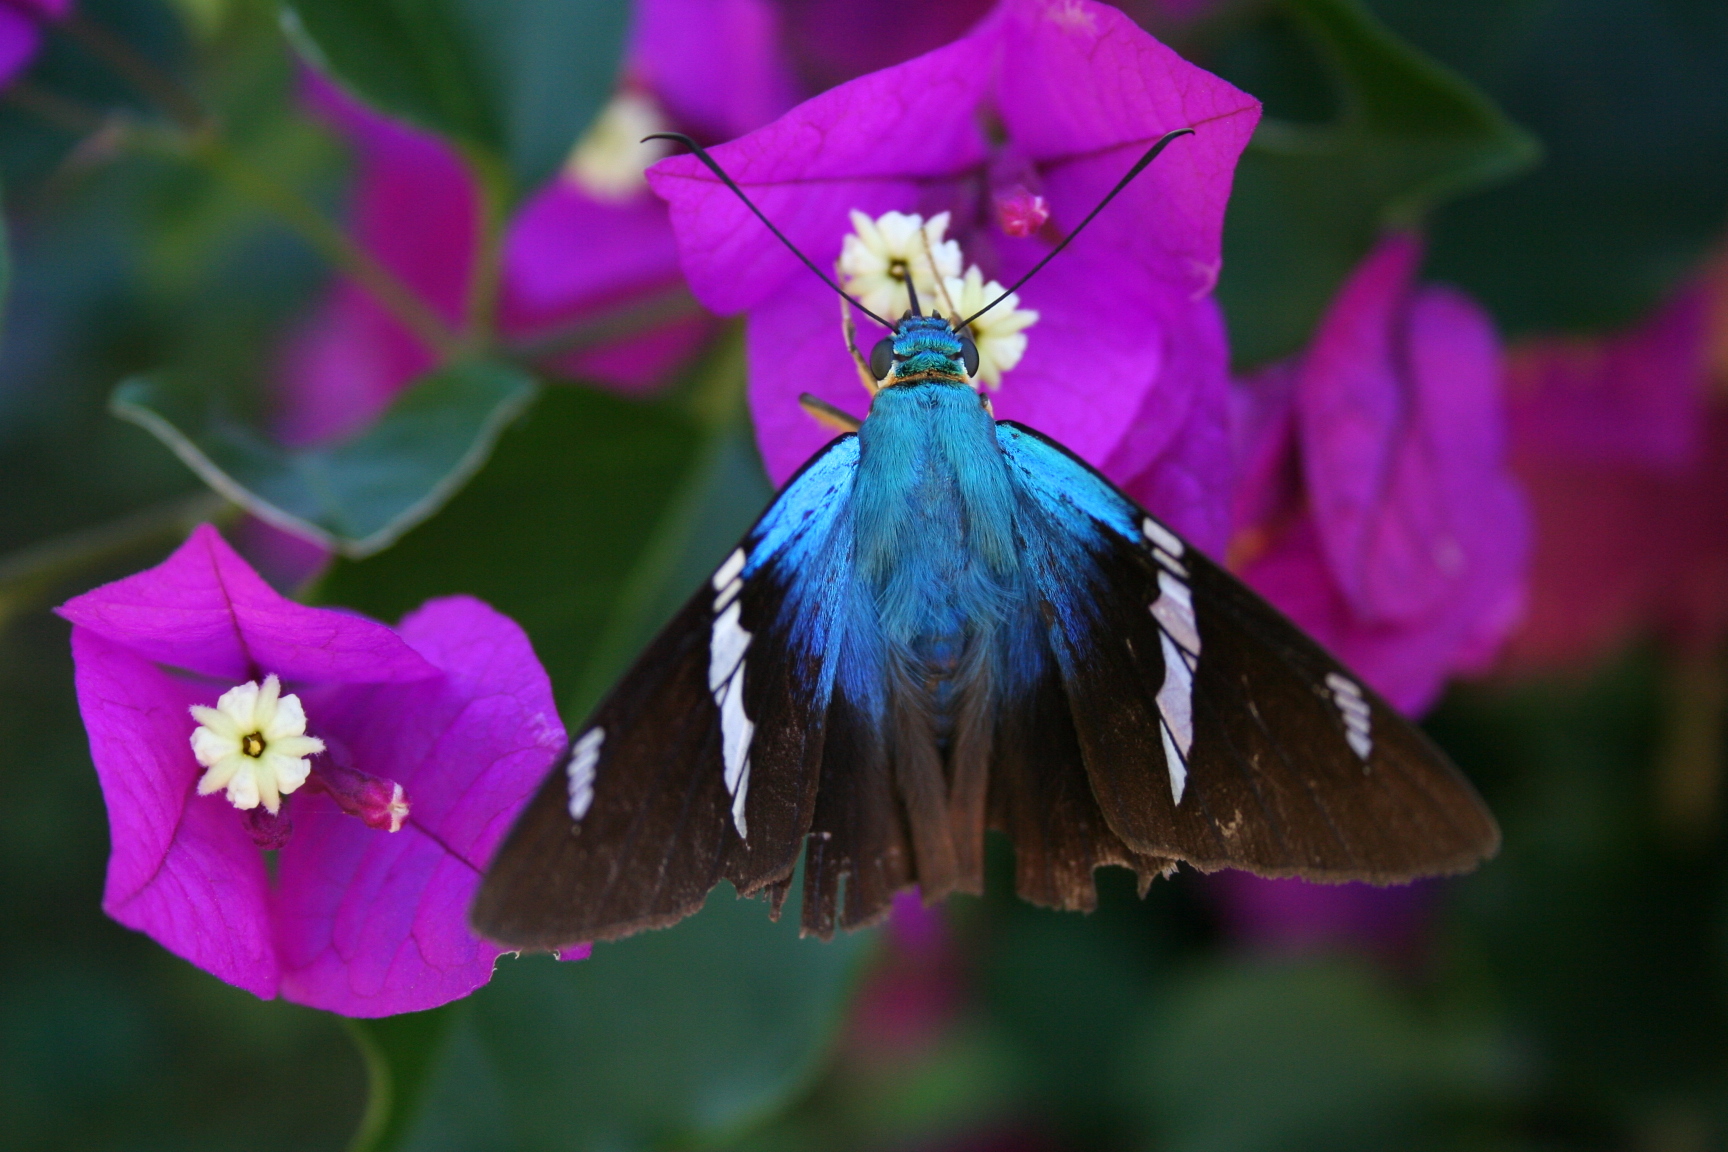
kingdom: Animalia
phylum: Arthropoda
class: Insecta
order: Lepidoptera
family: Hesperiidae
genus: Astraptes
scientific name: Astraptes fulgerator
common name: Two-barred flasher
